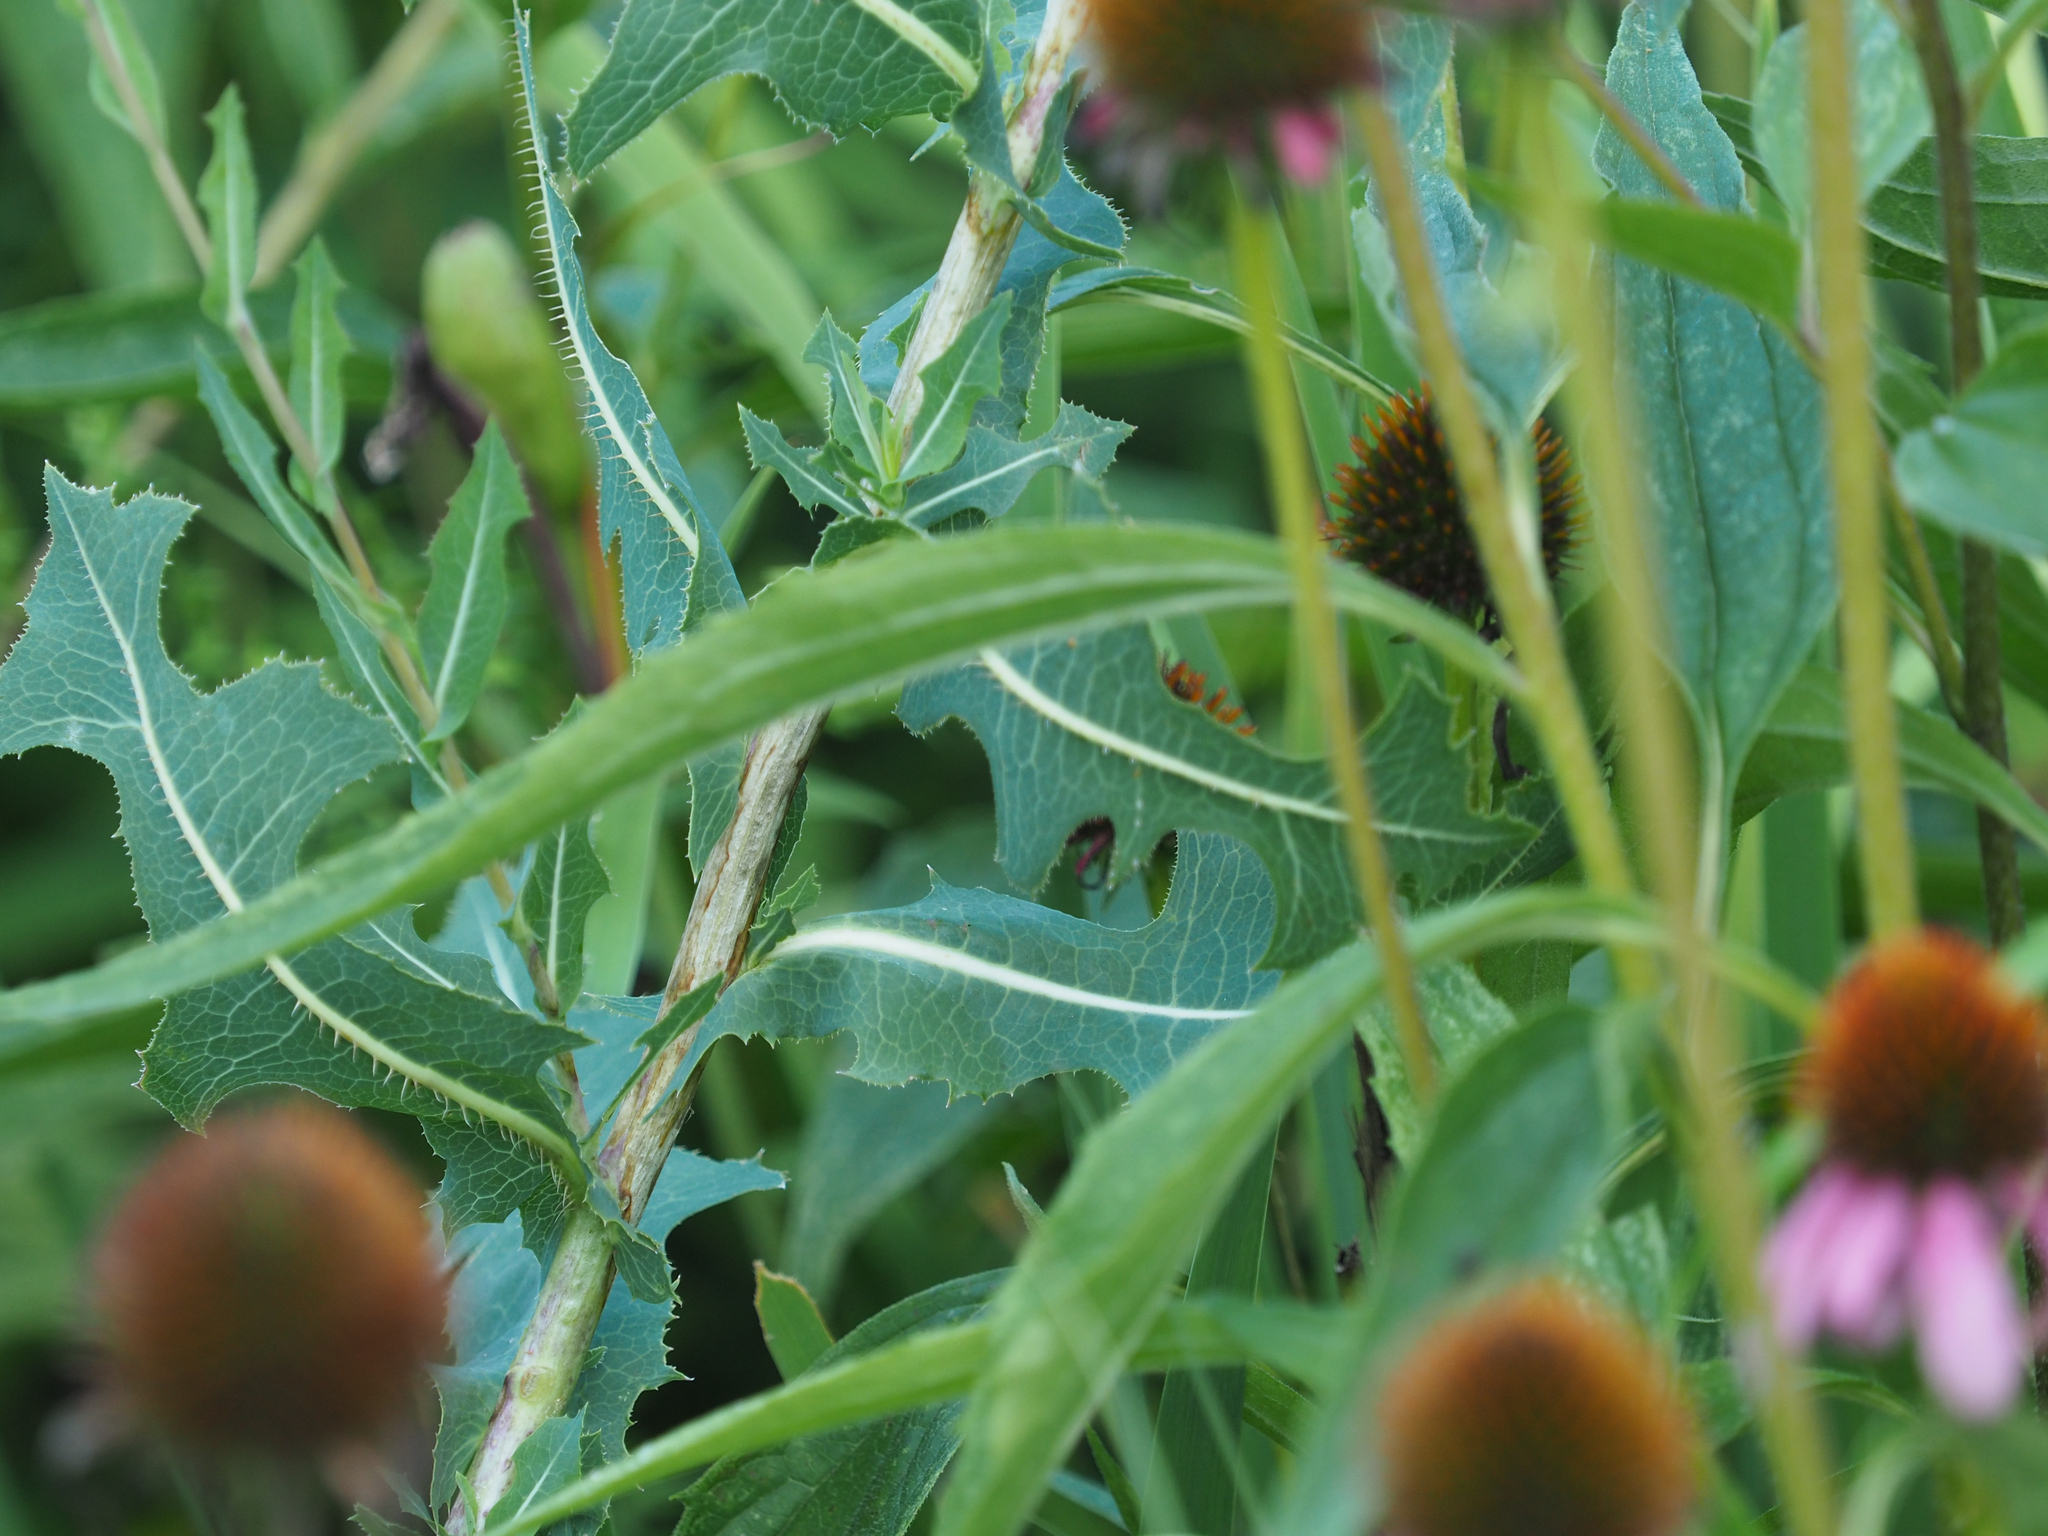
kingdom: Plantae
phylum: Tracheophyta
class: Magnoliopsida
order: Asterales
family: Asteraceae
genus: Lactuca
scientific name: Lactuca serriola
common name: Prickly lettuce
